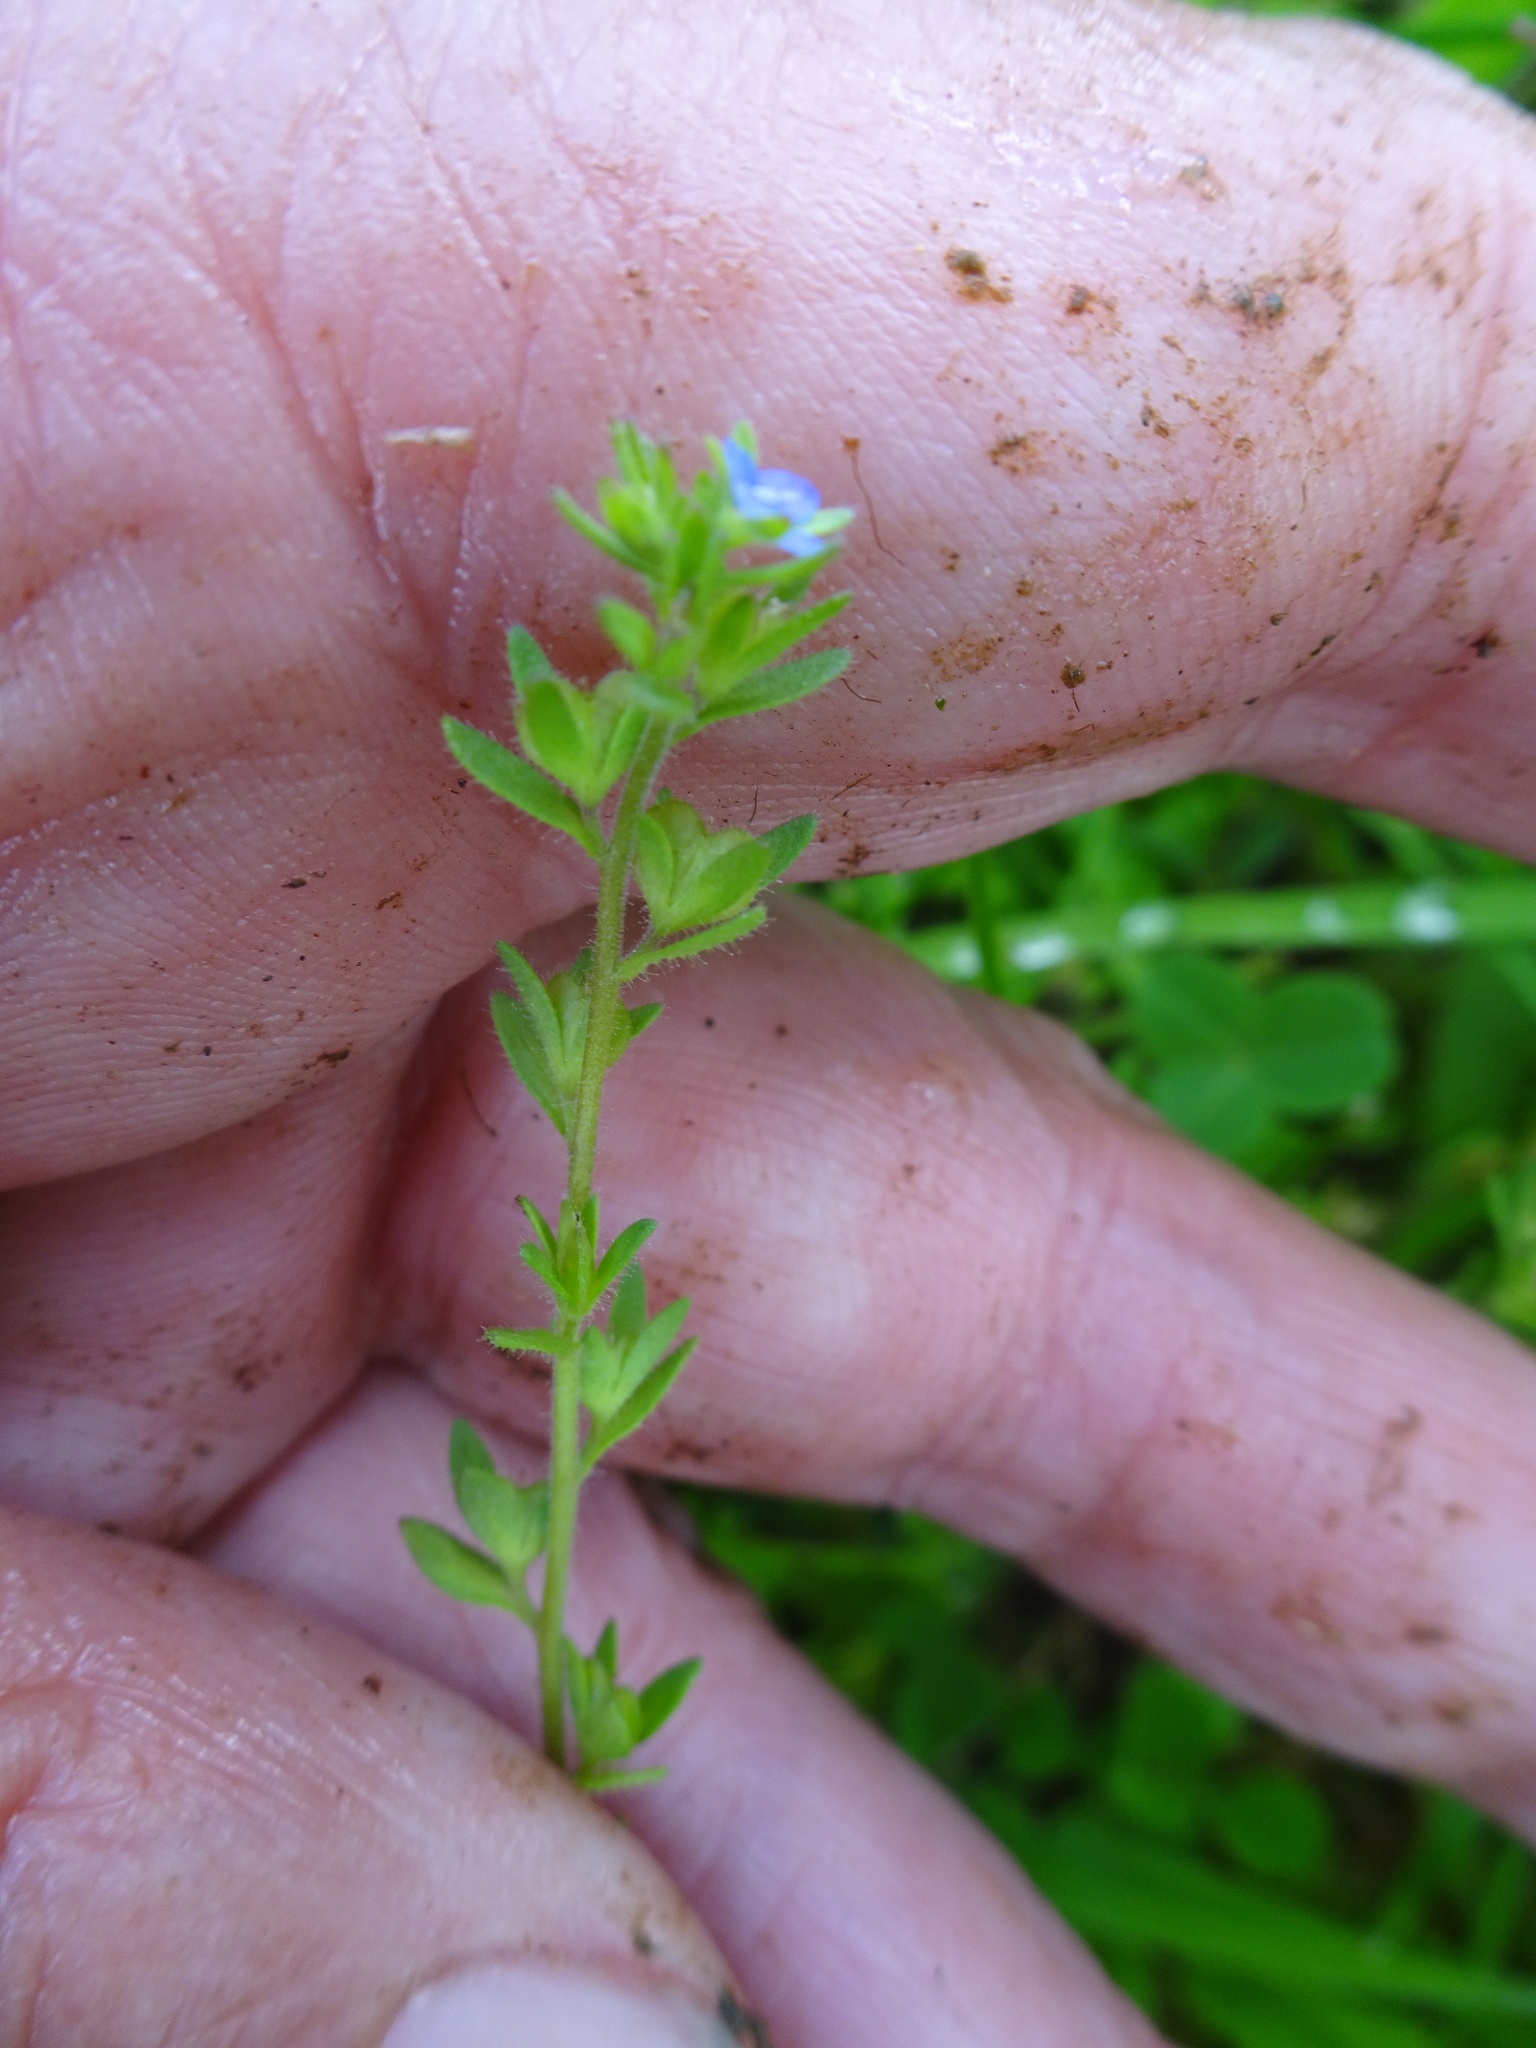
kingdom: Plantae
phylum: Tracheophyta
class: Magnoliopsida
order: Lamiales
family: Plantaginaceae
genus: Veronica
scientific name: Veronica arvensis
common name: Corn speedwell
